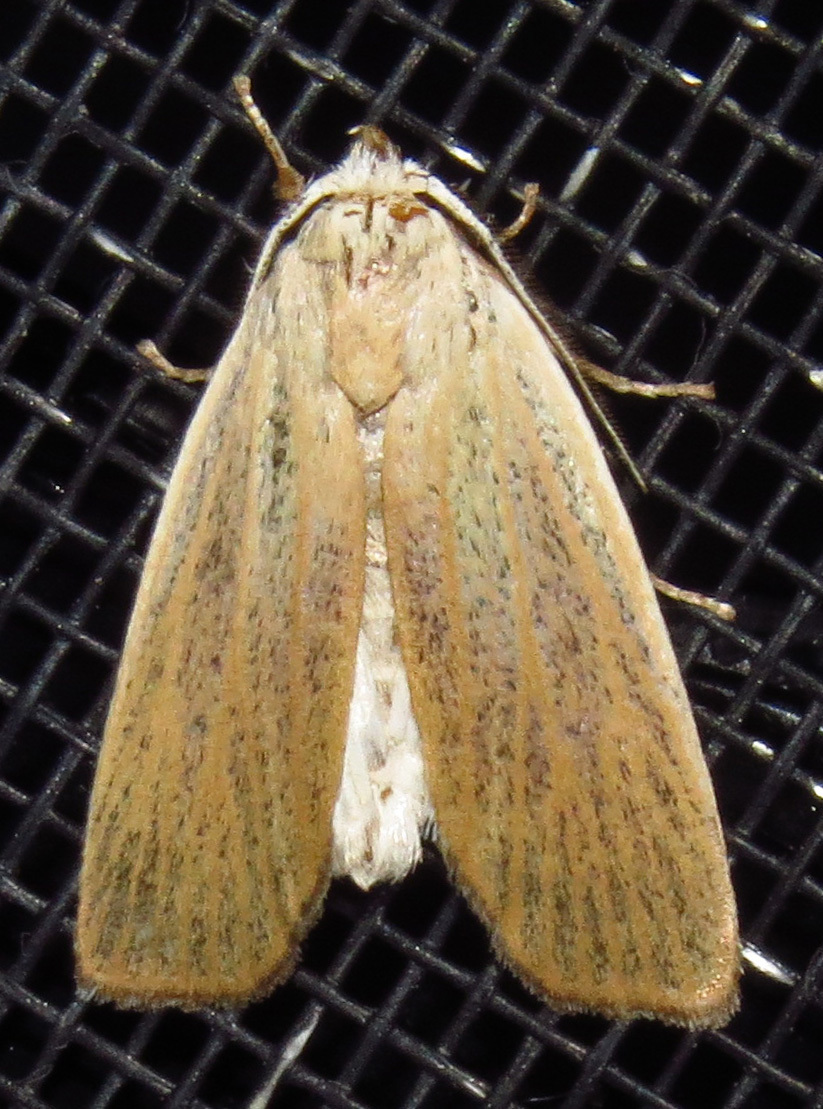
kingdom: Animalia
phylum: Arthropoda
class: Insecta
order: Lepidoptera
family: Erebidae
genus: Palpidia
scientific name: Palpidia pallidior
